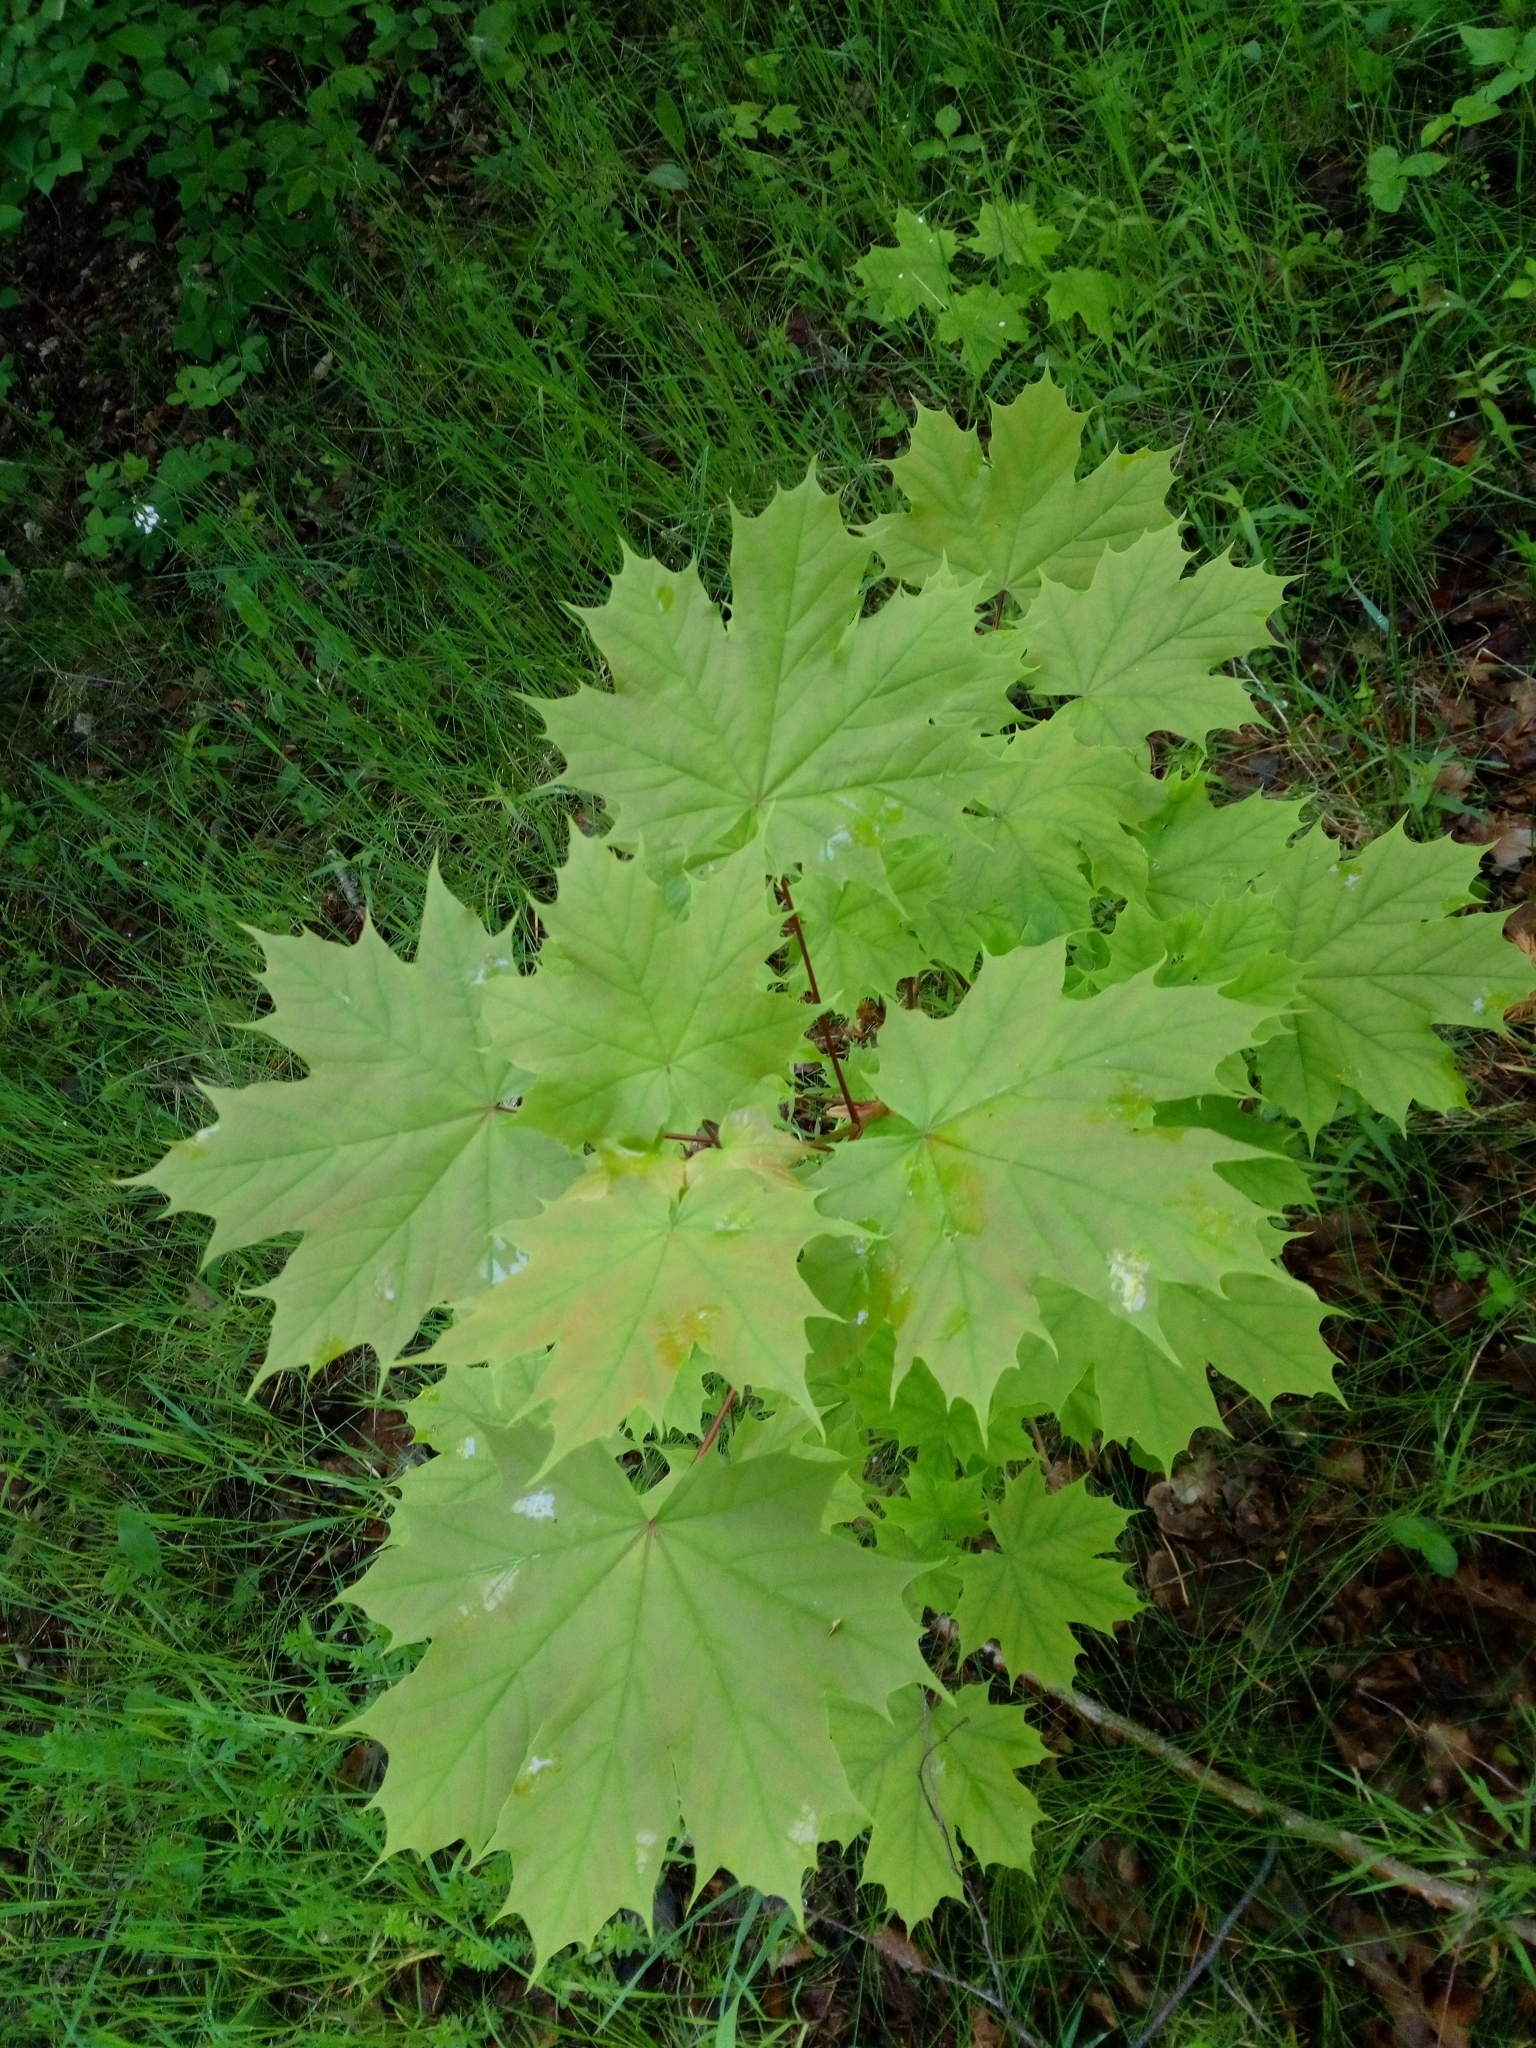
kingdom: Plantae
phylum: Tracheophyta
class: Magnoliopsida
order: Sapindales
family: Sapindaceae
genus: Acer
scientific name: Acer platanoides
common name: Norway maple
